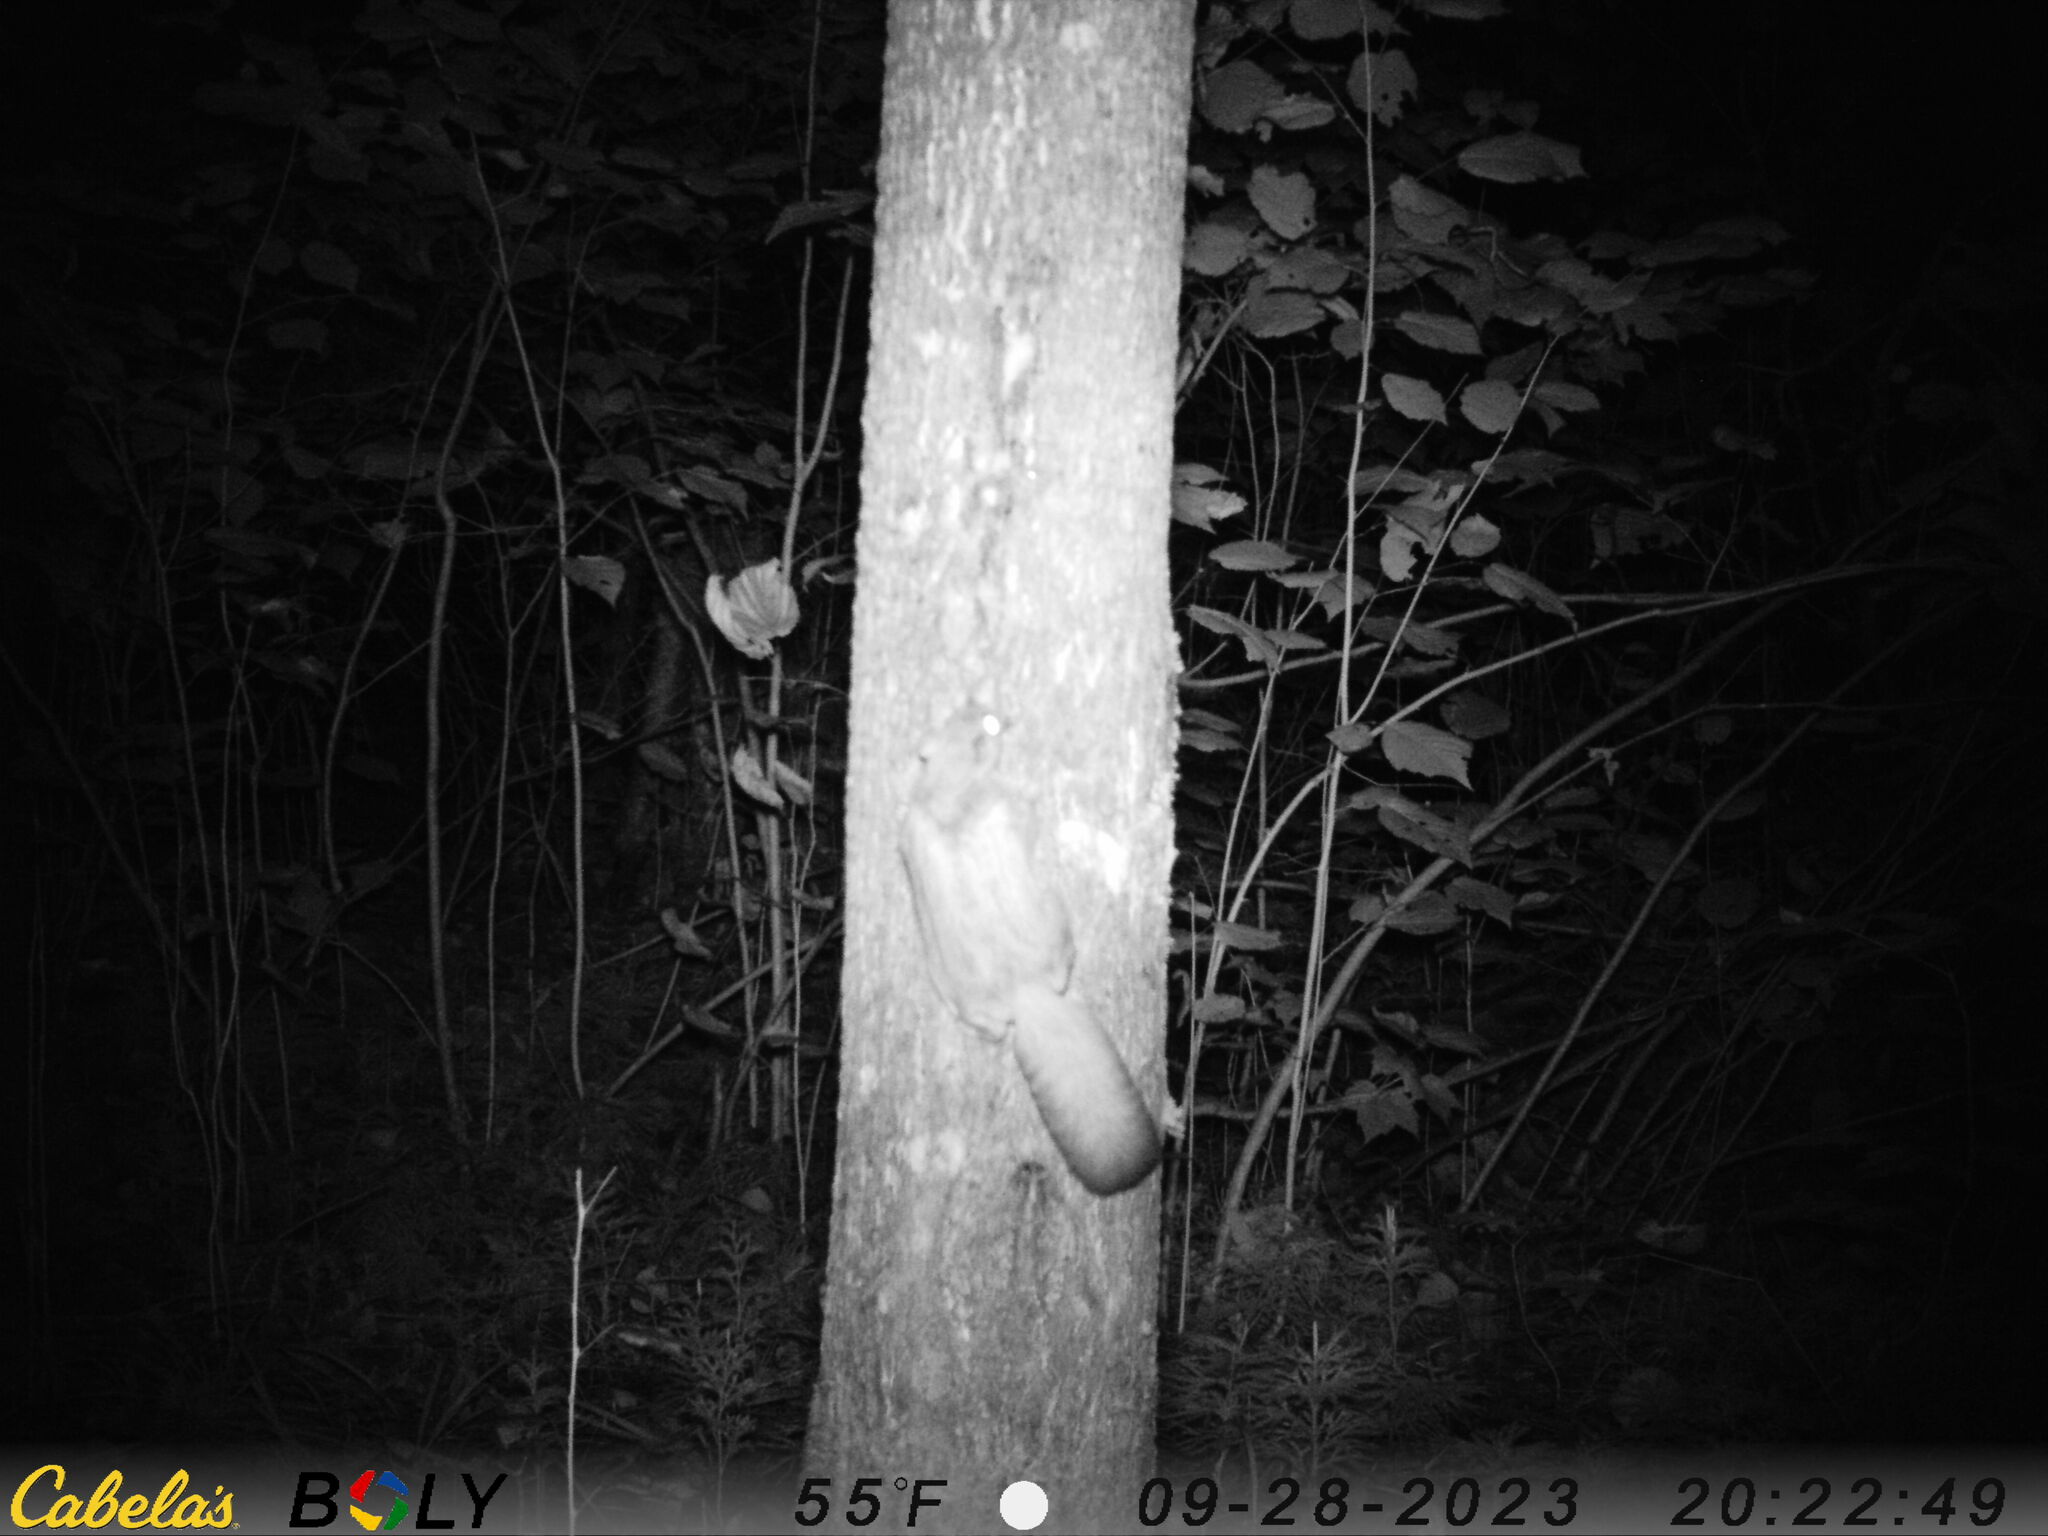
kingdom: Animalia
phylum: Chordata
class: Mammalia
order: Rodentia
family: Sciuridae
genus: Glaucomys
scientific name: Glaucomys sabrinus
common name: Northern flying squirrel
